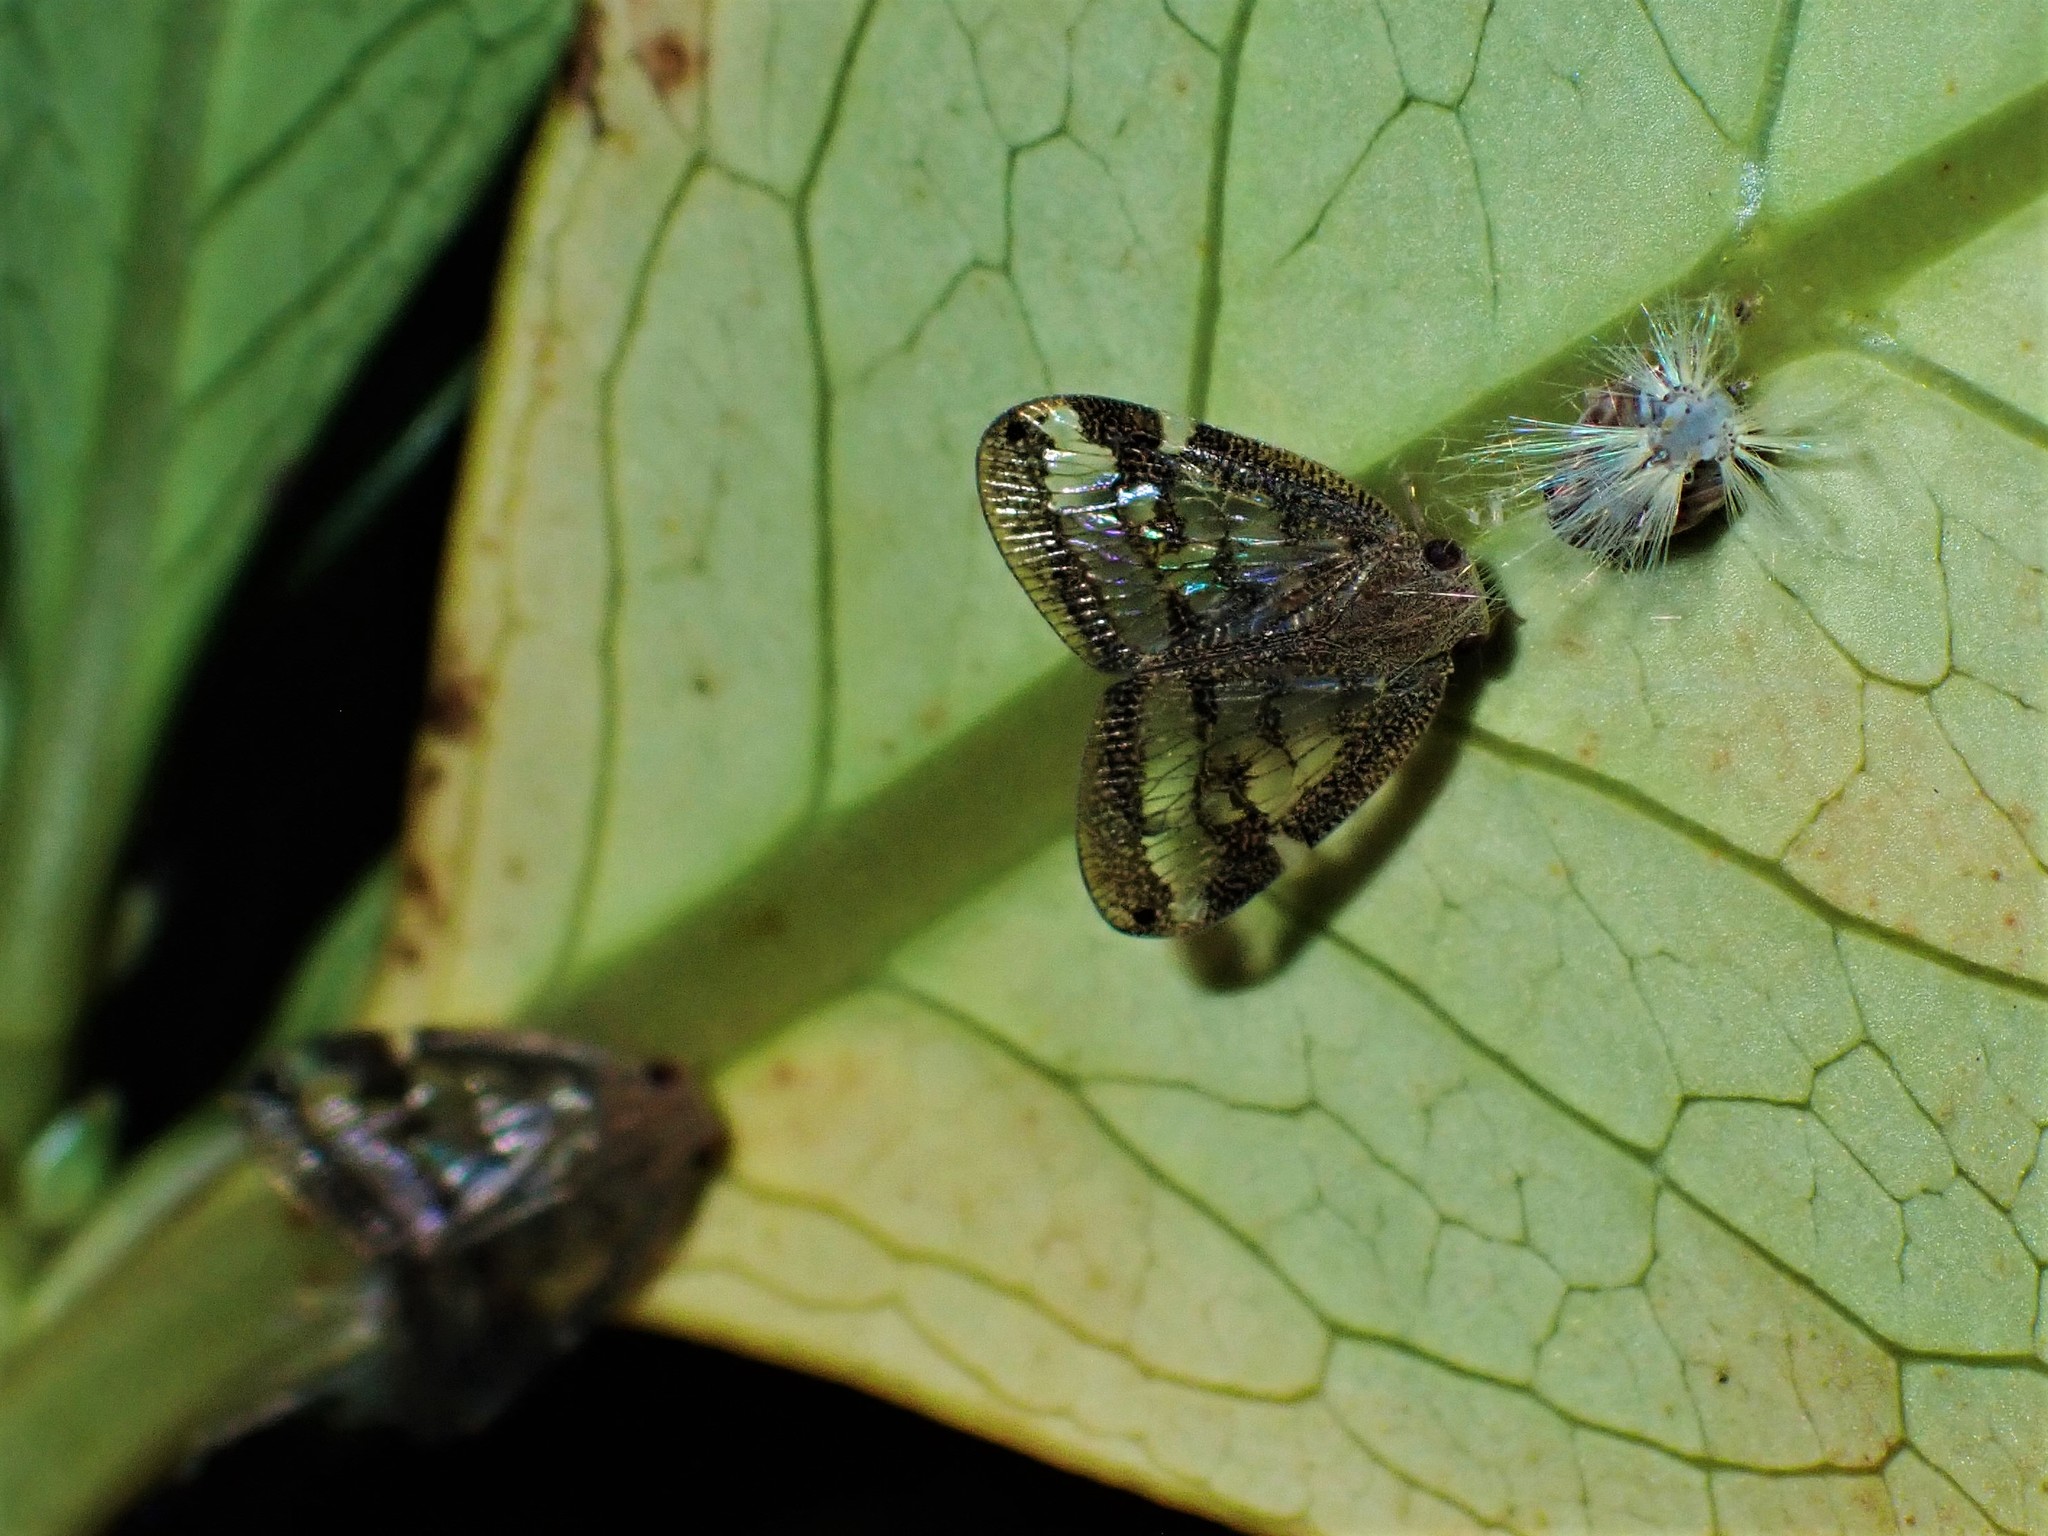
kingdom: Animalia
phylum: Arthropoda
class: Insecta
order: Hemiptera
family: Ricaniidae
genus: Scolypopa
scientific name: Scolypopa australis
